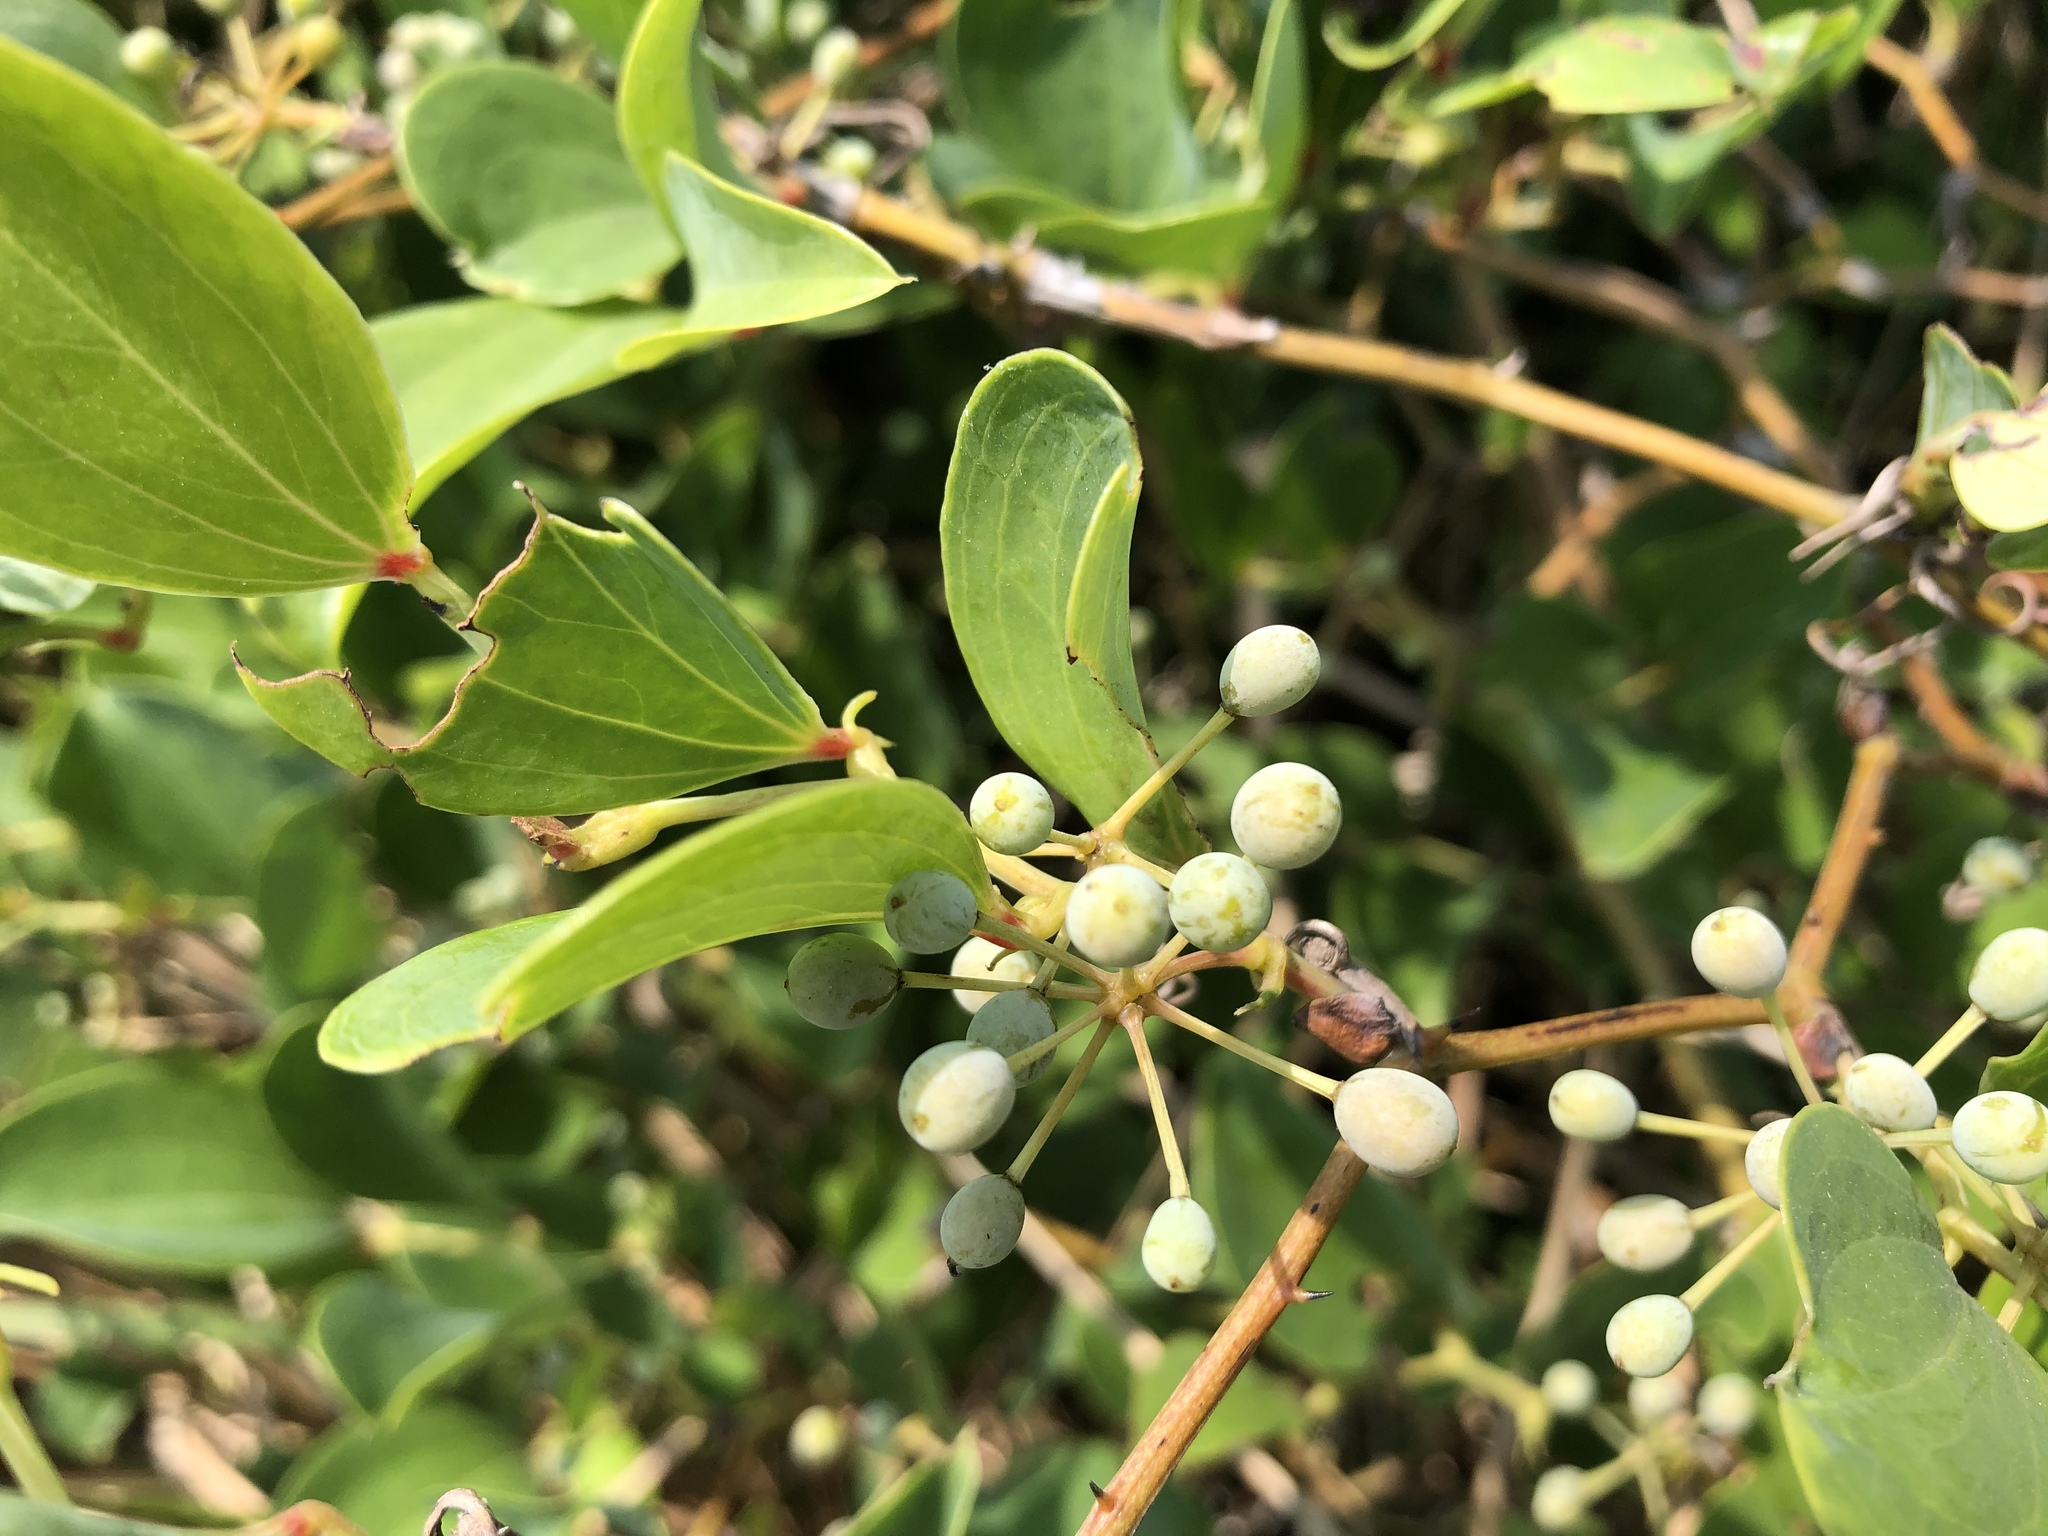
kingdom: Plantae
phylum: Tracheophyta
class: Liliopsida
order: Liliales
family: Smilacaceae
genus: Smilax
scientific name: Smilax china
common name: Chinaroot
